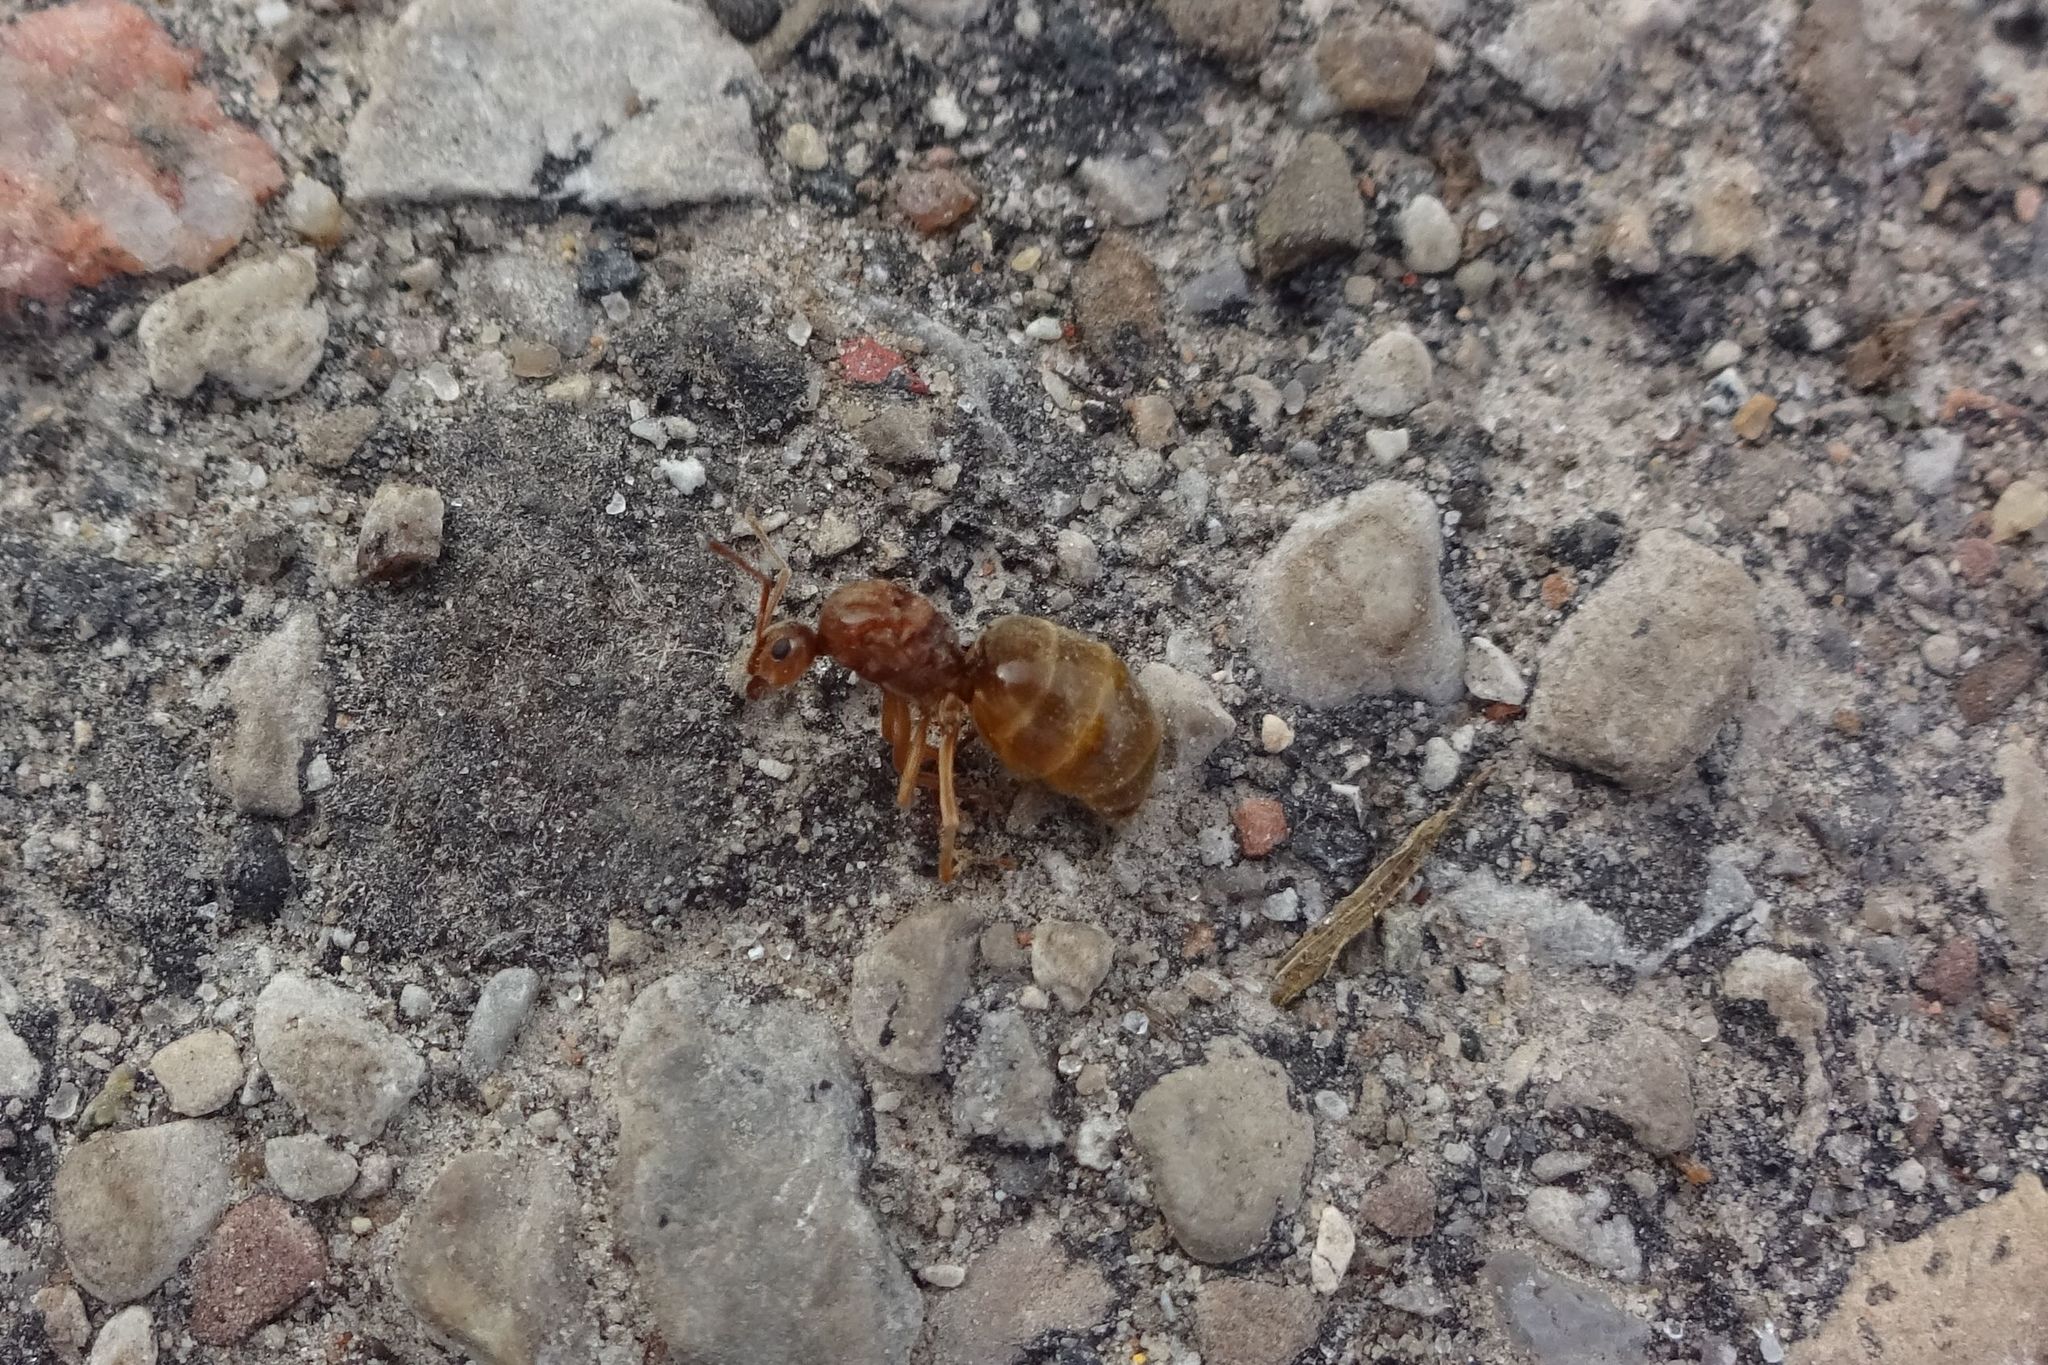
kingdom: Animalia
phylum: Arthropoda
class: Insecta
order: Hymenoptera
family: Formicidae
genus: Prenolepis
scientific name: Prenolepis imparis
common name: Small honey ant
